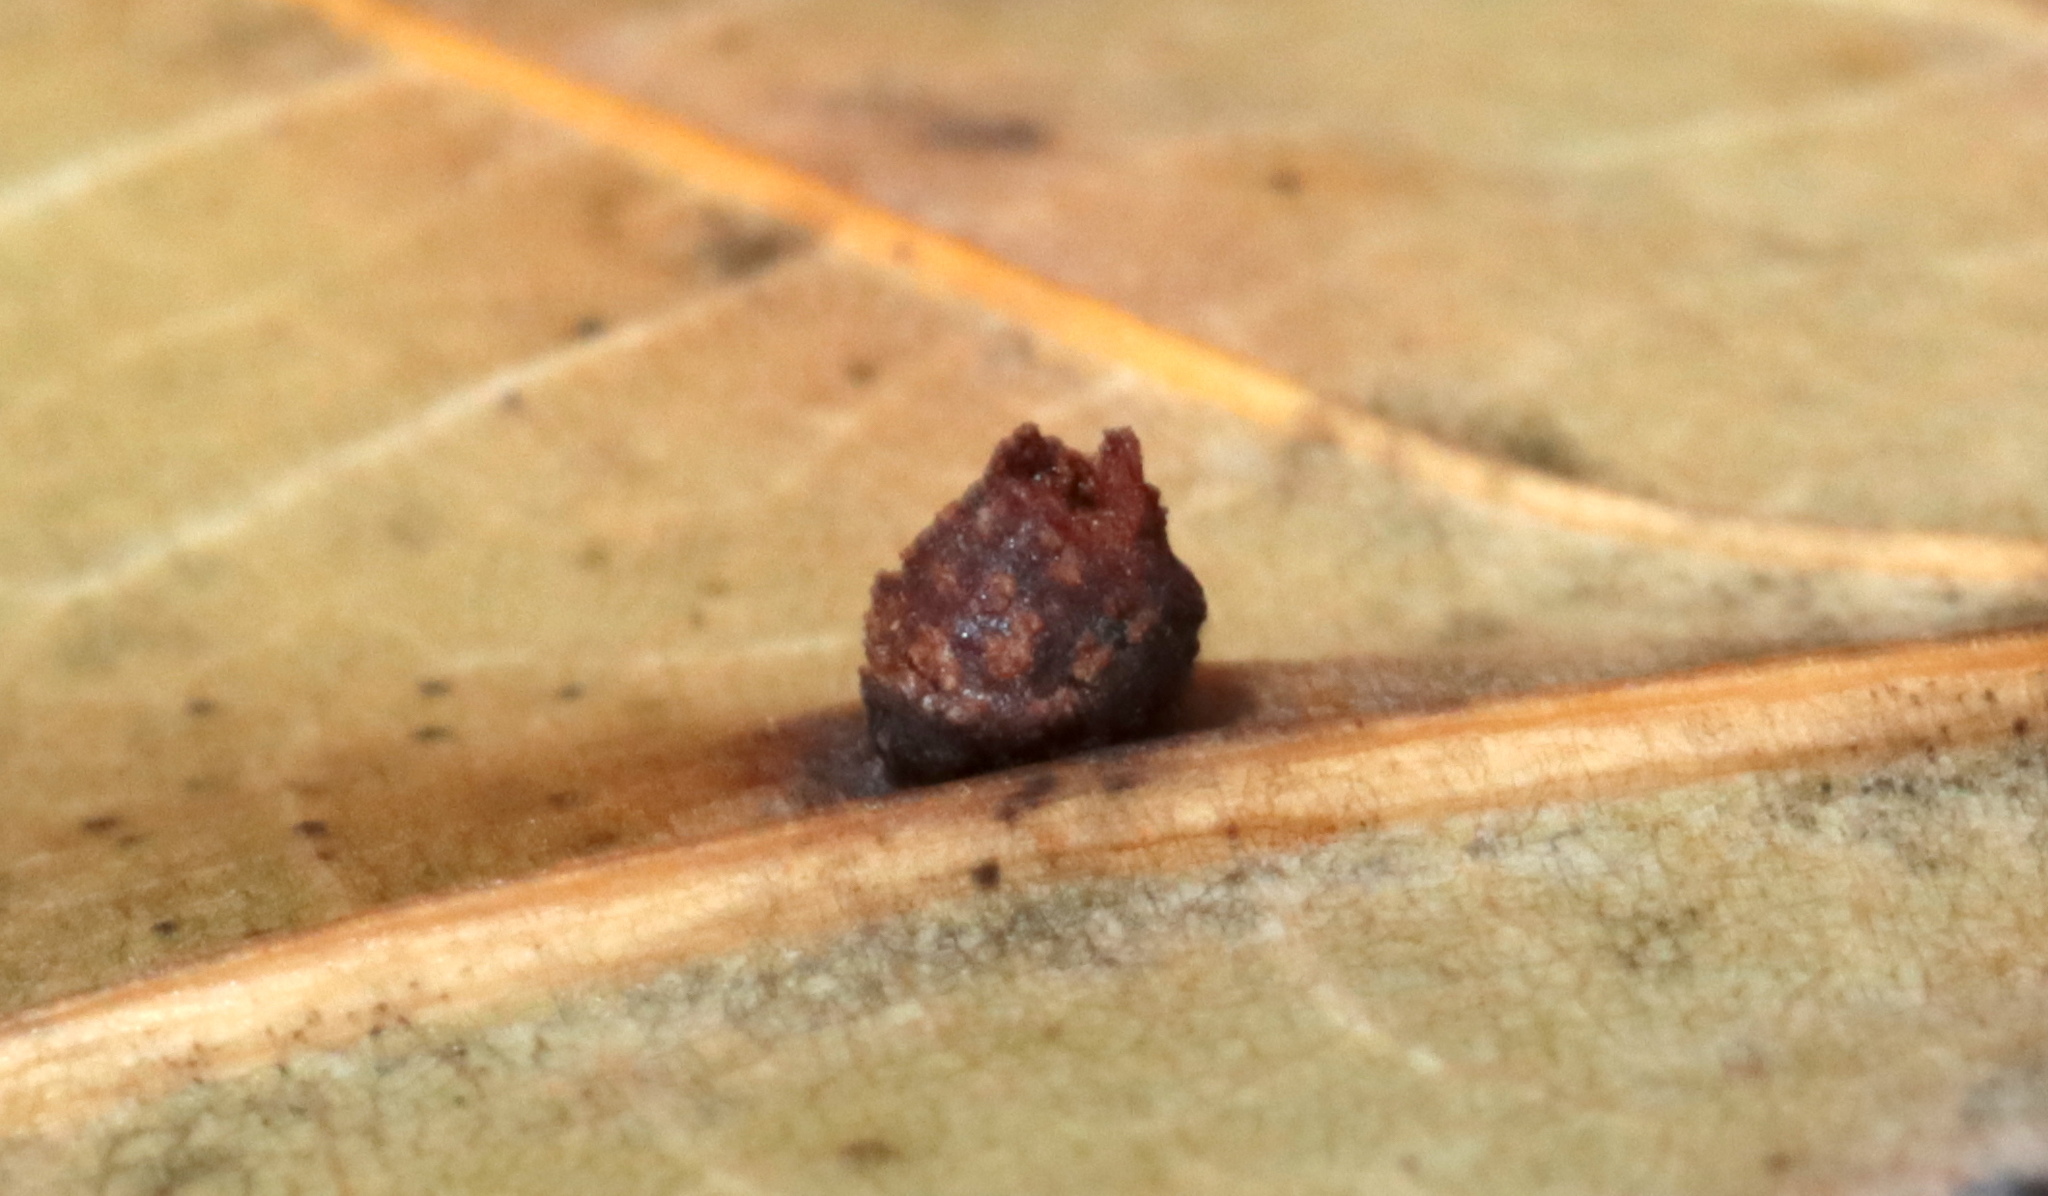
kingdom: Animalia
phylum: Arthropoda
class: Insecta
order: Diptera
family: Cecidomyiidae
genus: Polystepha
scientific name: Polystepha globosa
